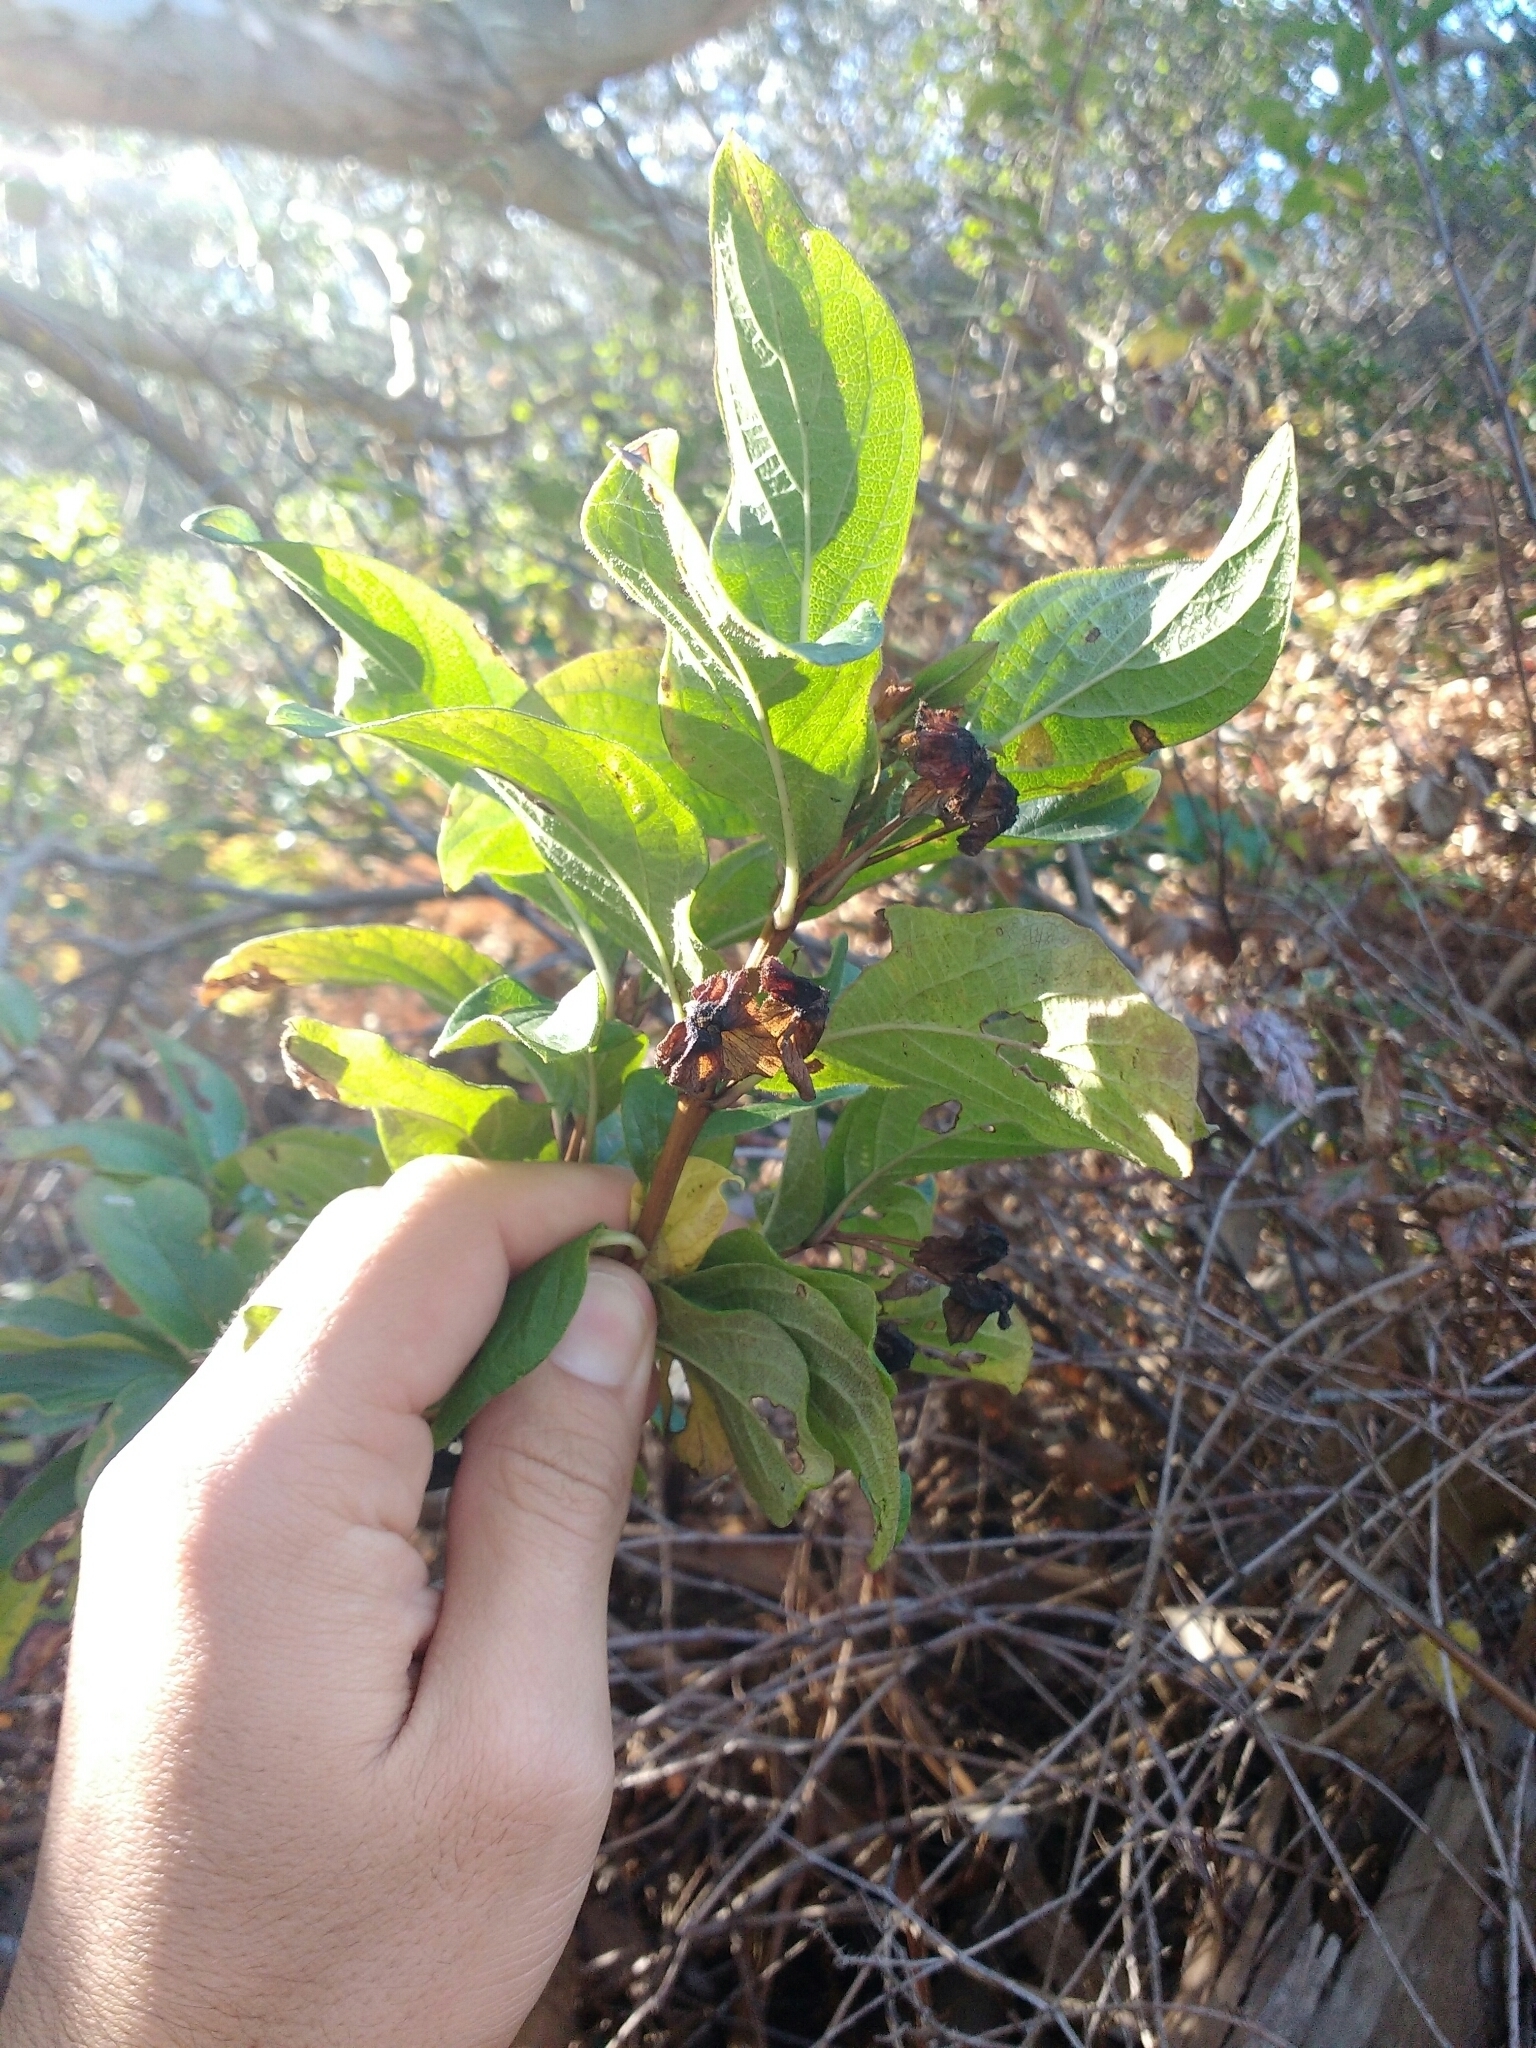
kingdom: Plantae
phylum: Tracheophyta
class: Magnoliopsida
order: Dipsacales
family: Caprifoliaceae
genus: Lonicera
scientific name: Lonicera involucrata
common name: Californian honeysuckle
